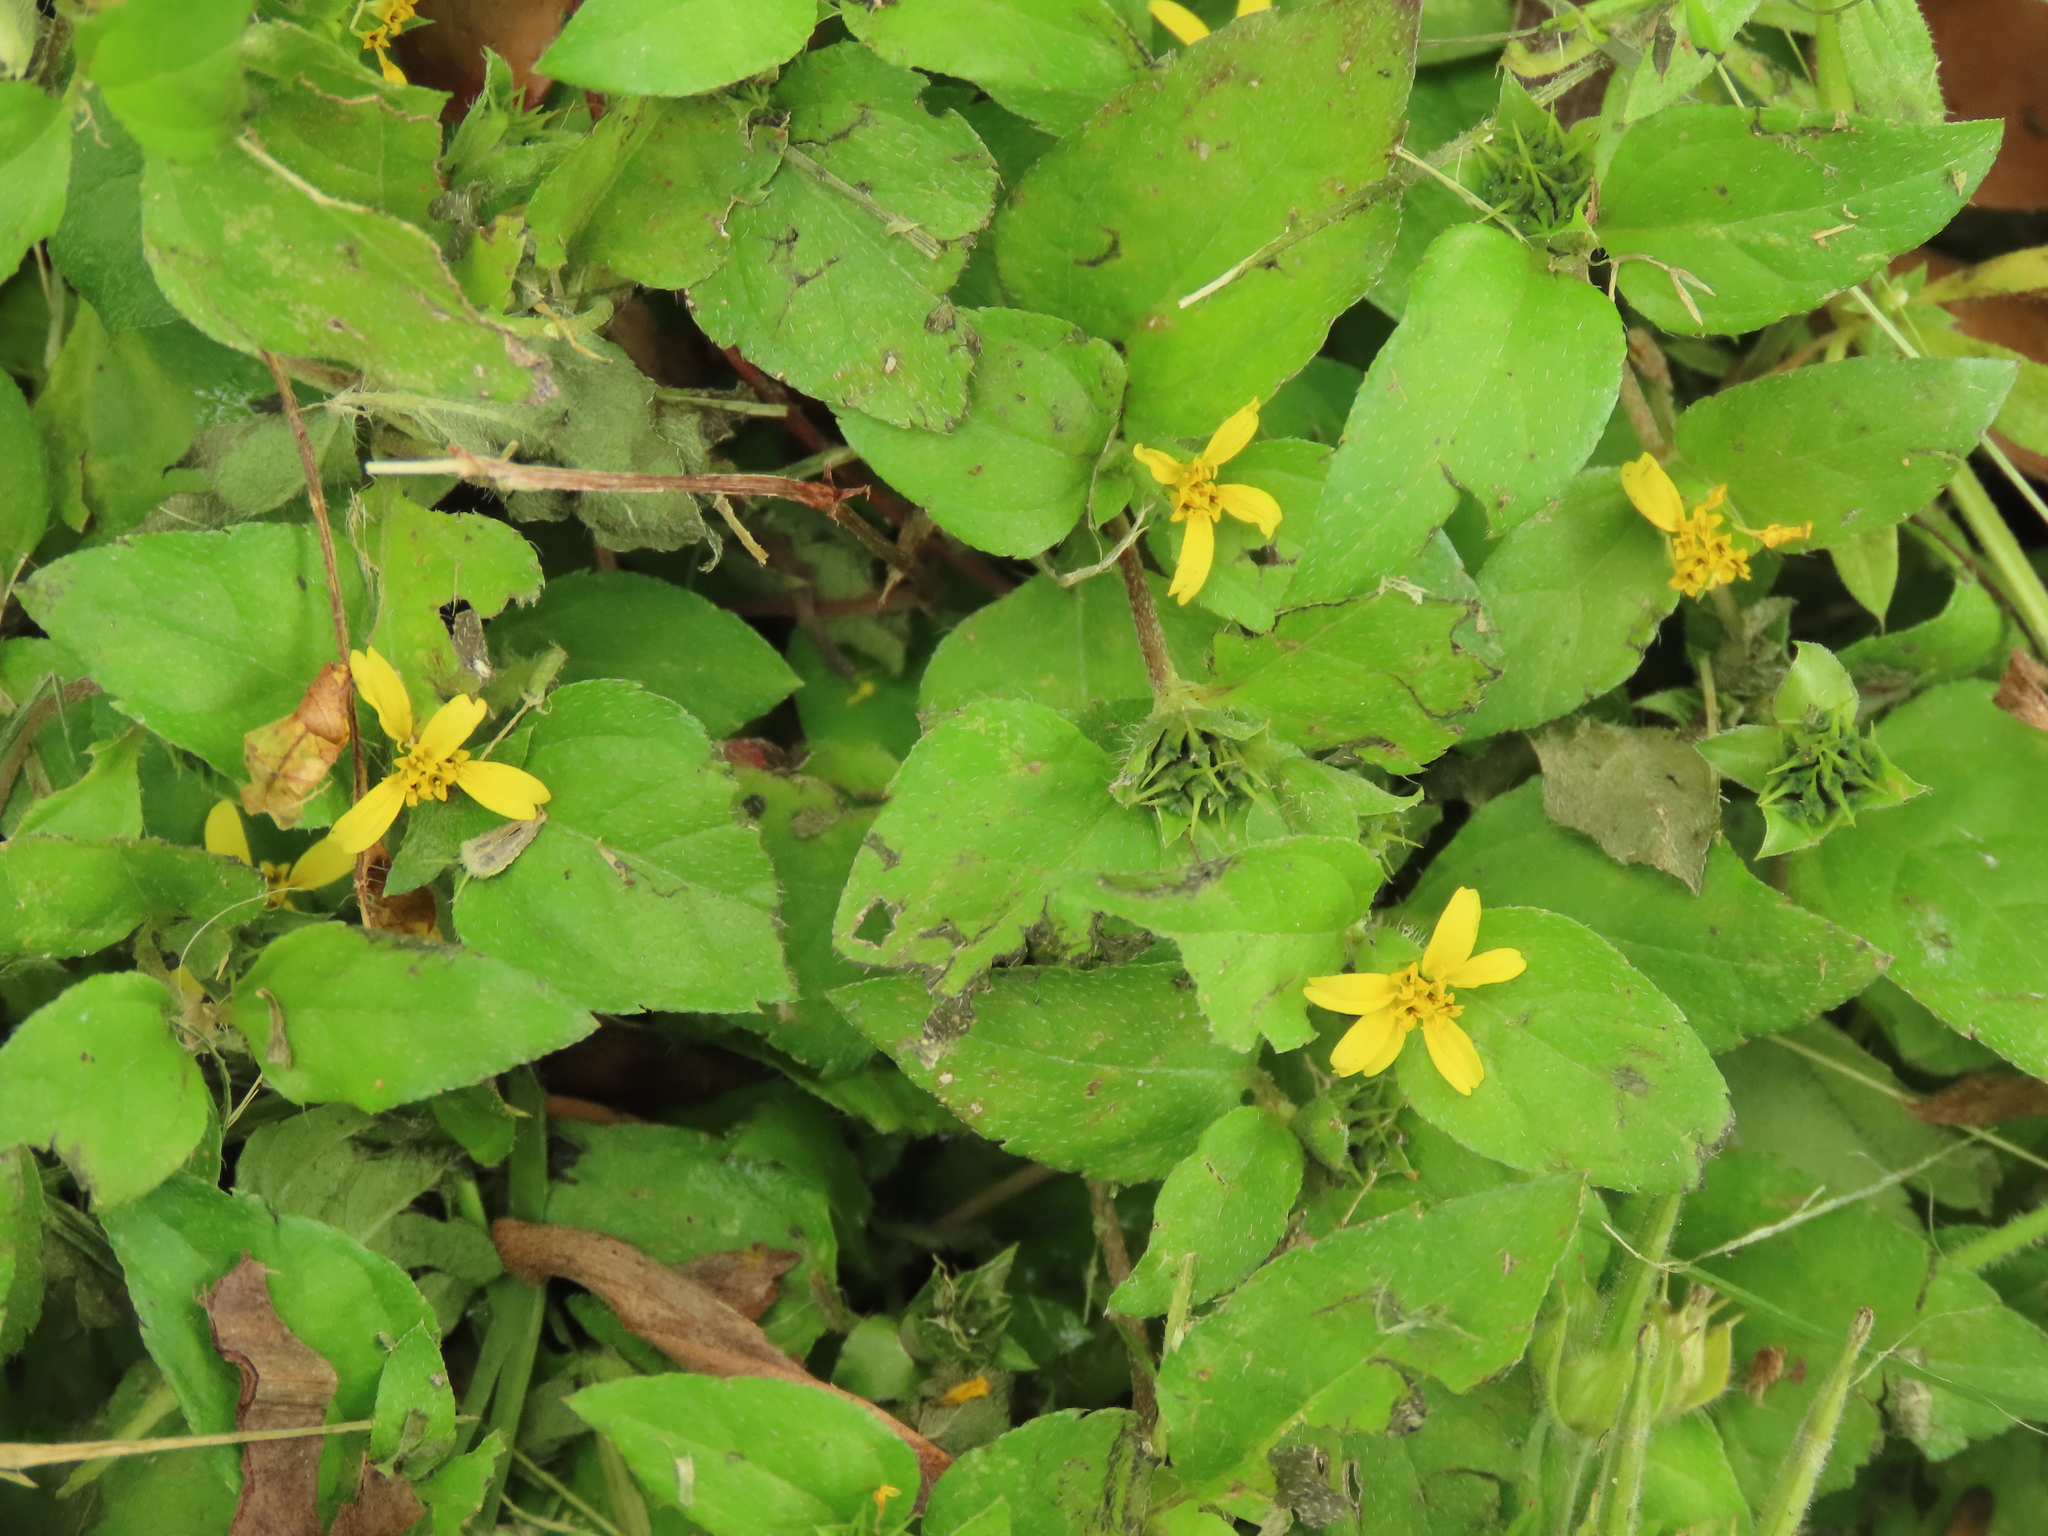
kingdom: Plantae
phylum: Tracheophyta
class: Magnoliopsida
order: Asterales
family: Asteraceae
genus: Calyptocarpus
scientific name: Calyptocarpus vialis
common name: Straggler daisy
